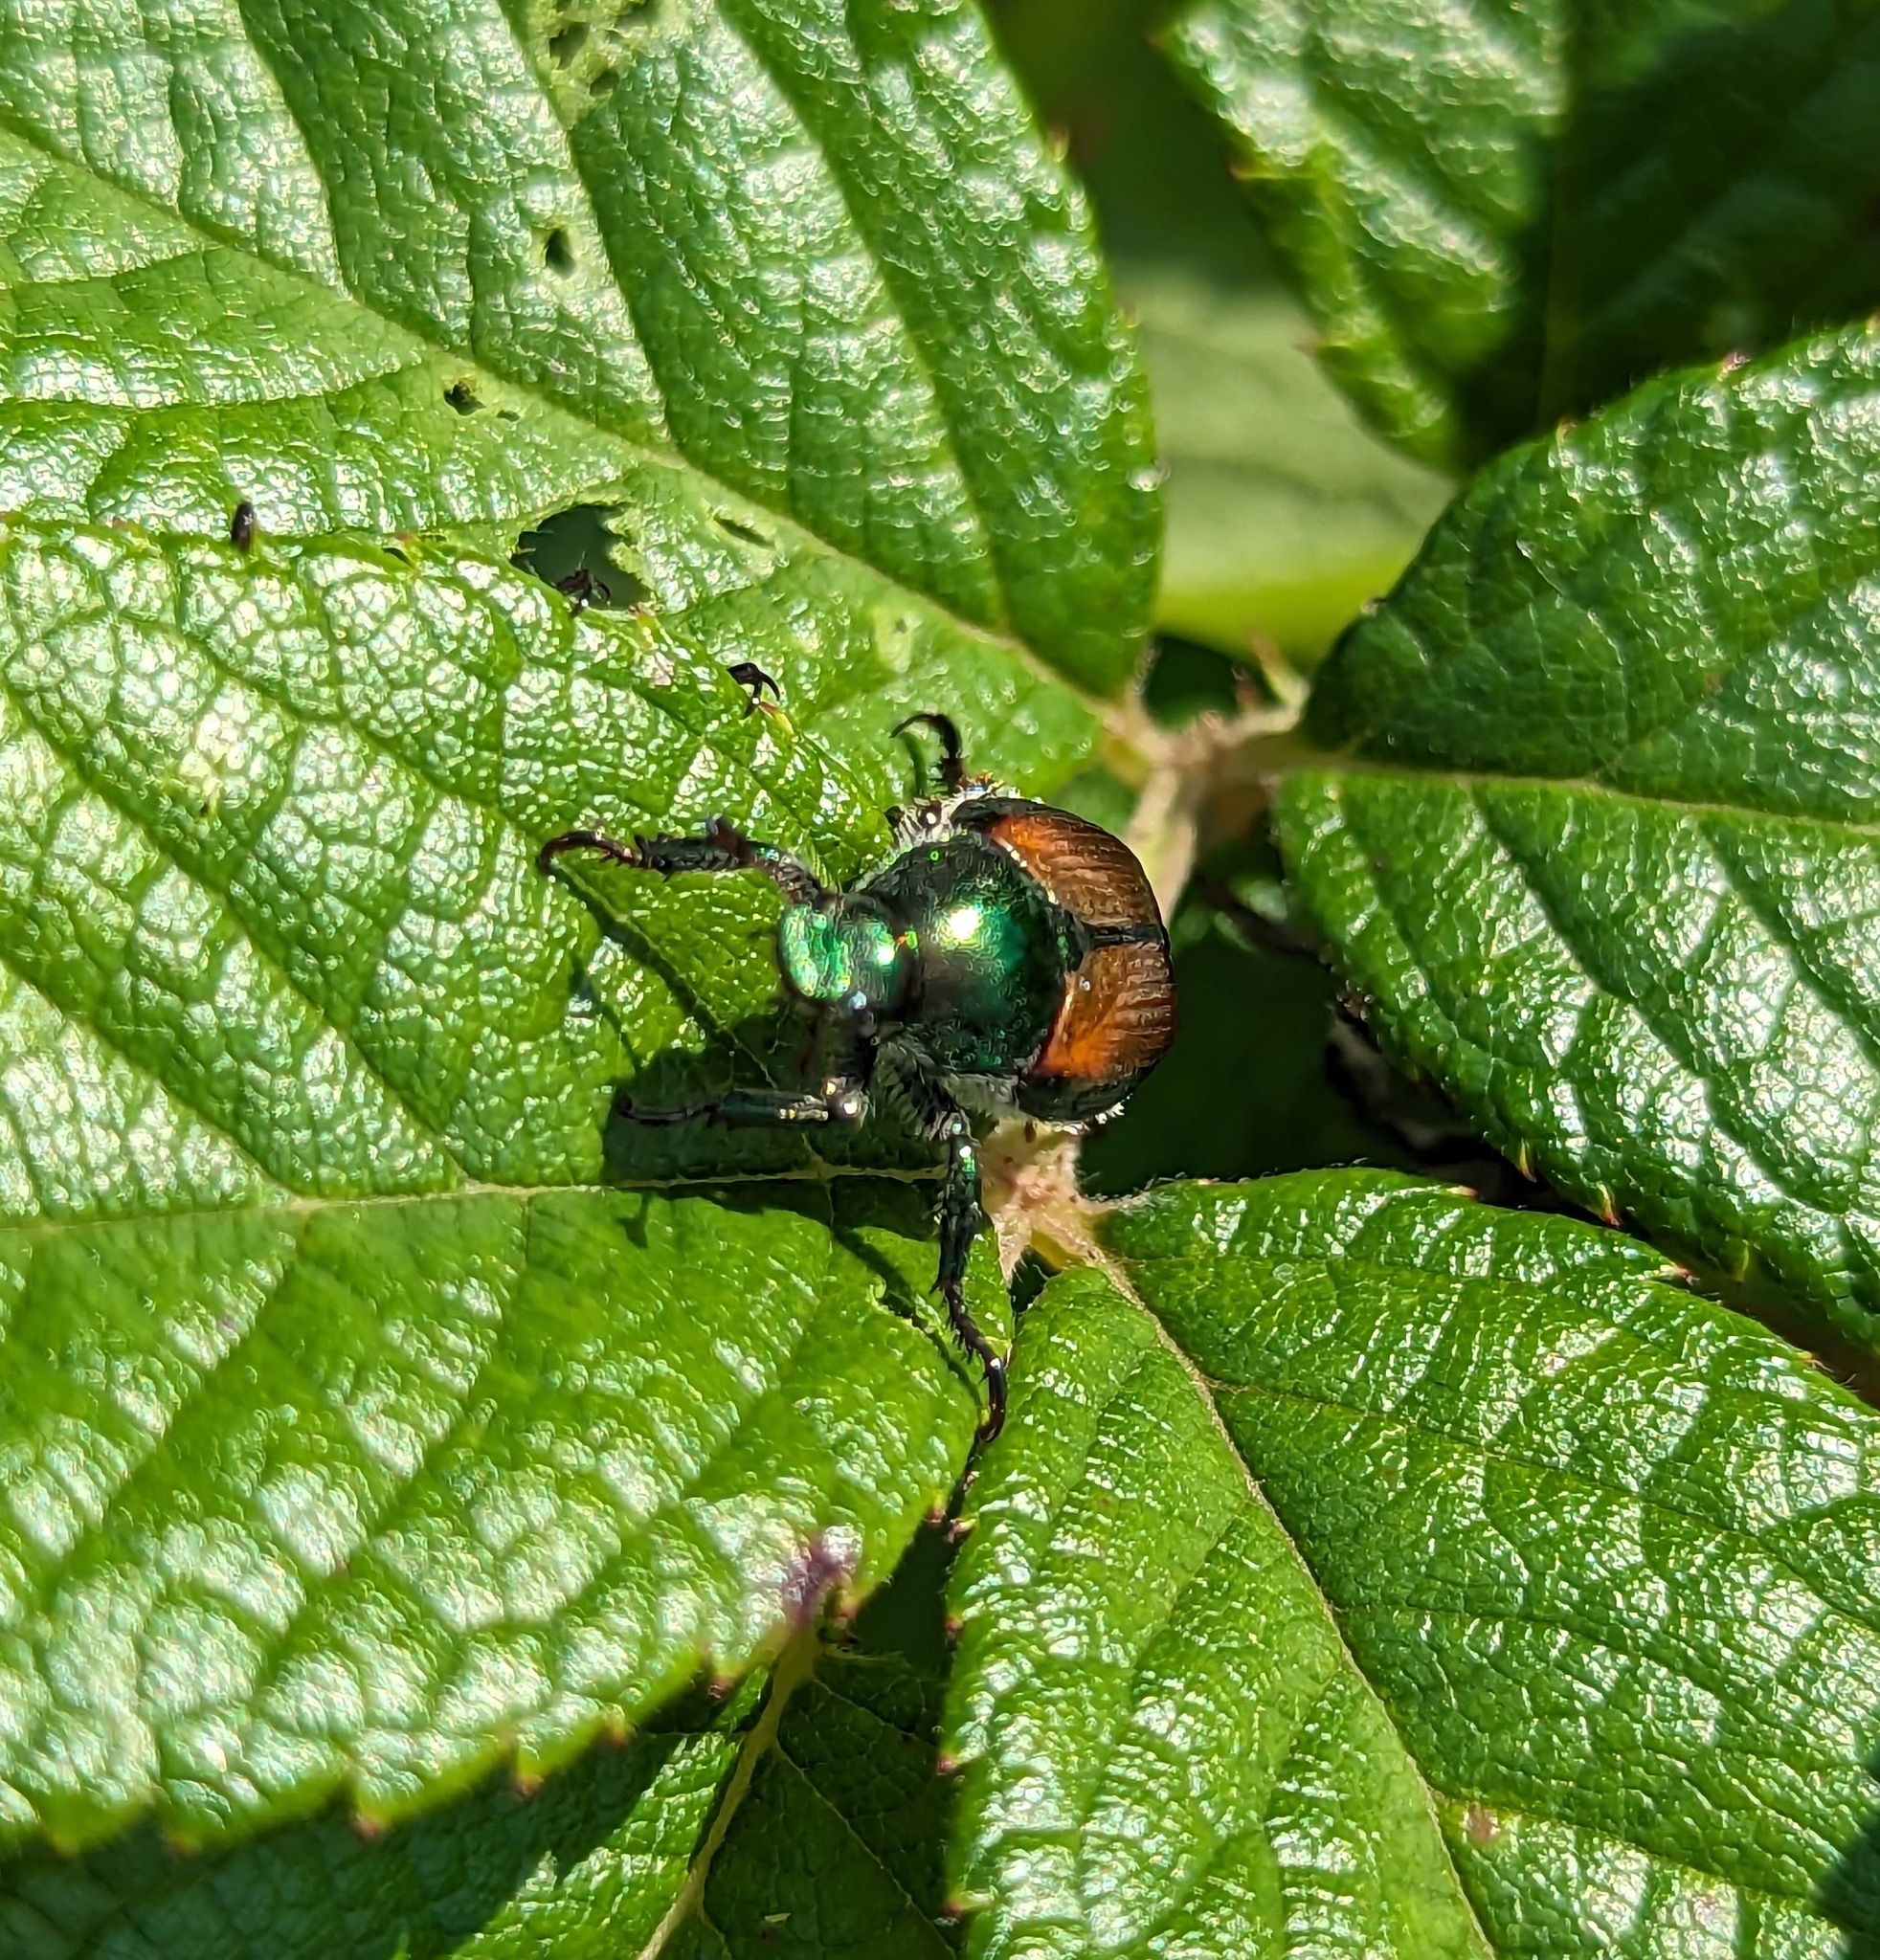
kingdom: Animalia
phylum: Arthropoda
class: Insecta
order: Coleoptera
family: Scarabaeidae
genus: Popillia
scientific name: Popillia japonica
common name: Japanese beetle
